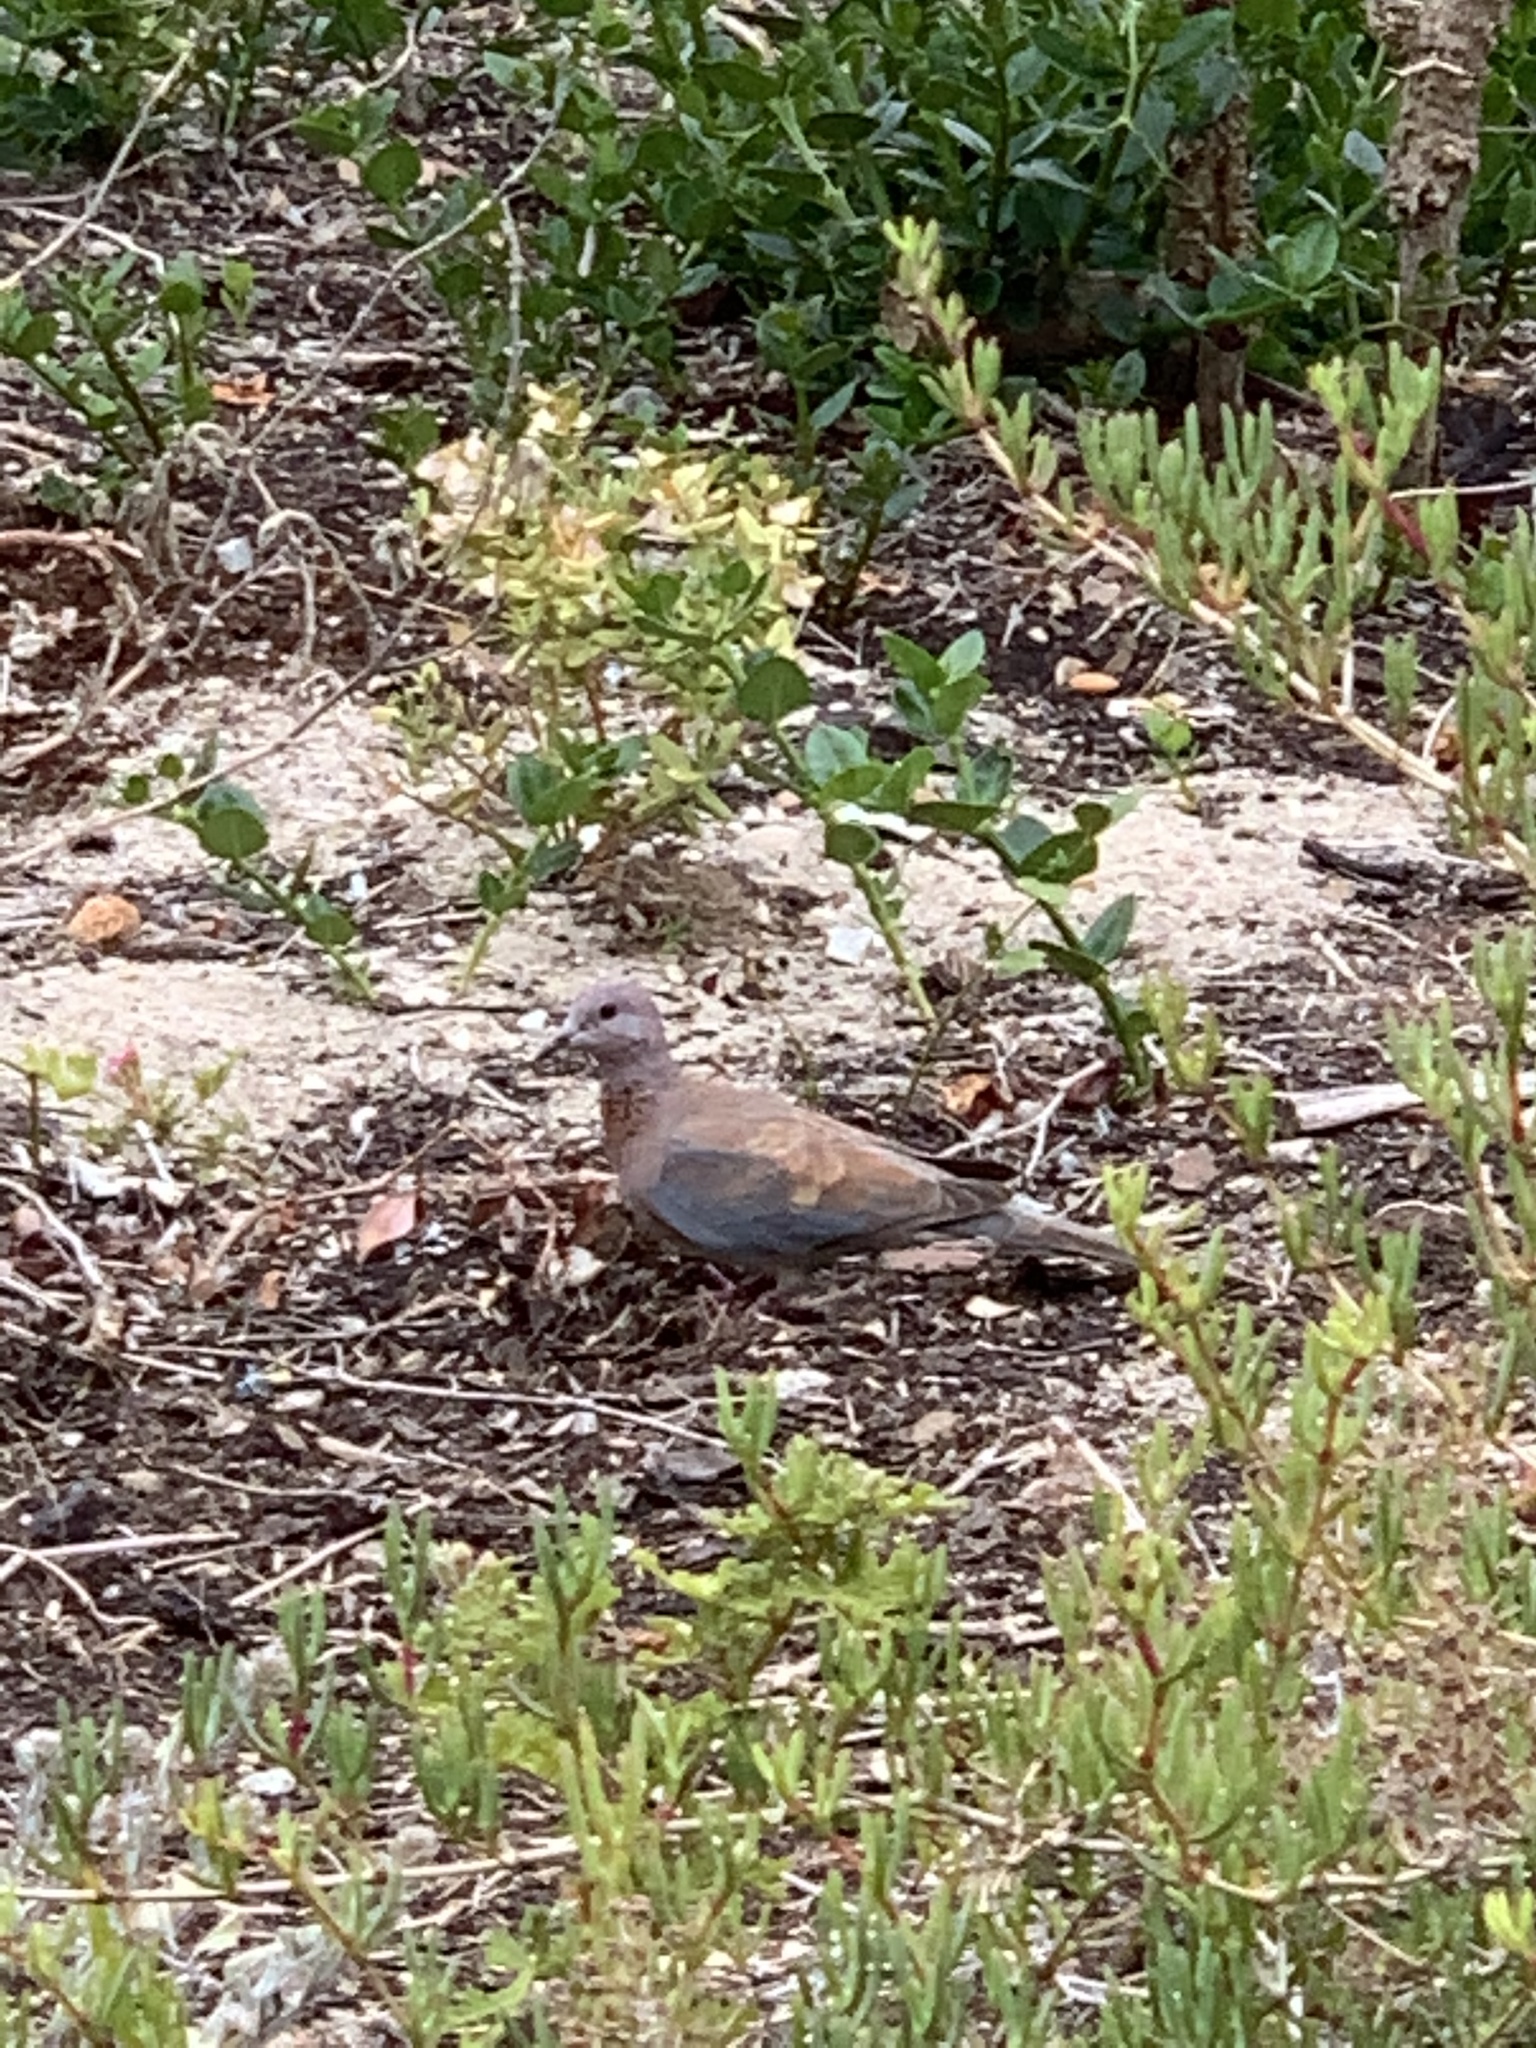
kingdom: Animalia
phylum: Chordata
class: Aves
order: Columbiformes
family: Columbidae
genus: Spilopelia
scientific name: Spilopelia senegalensis
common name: Laughing dove
